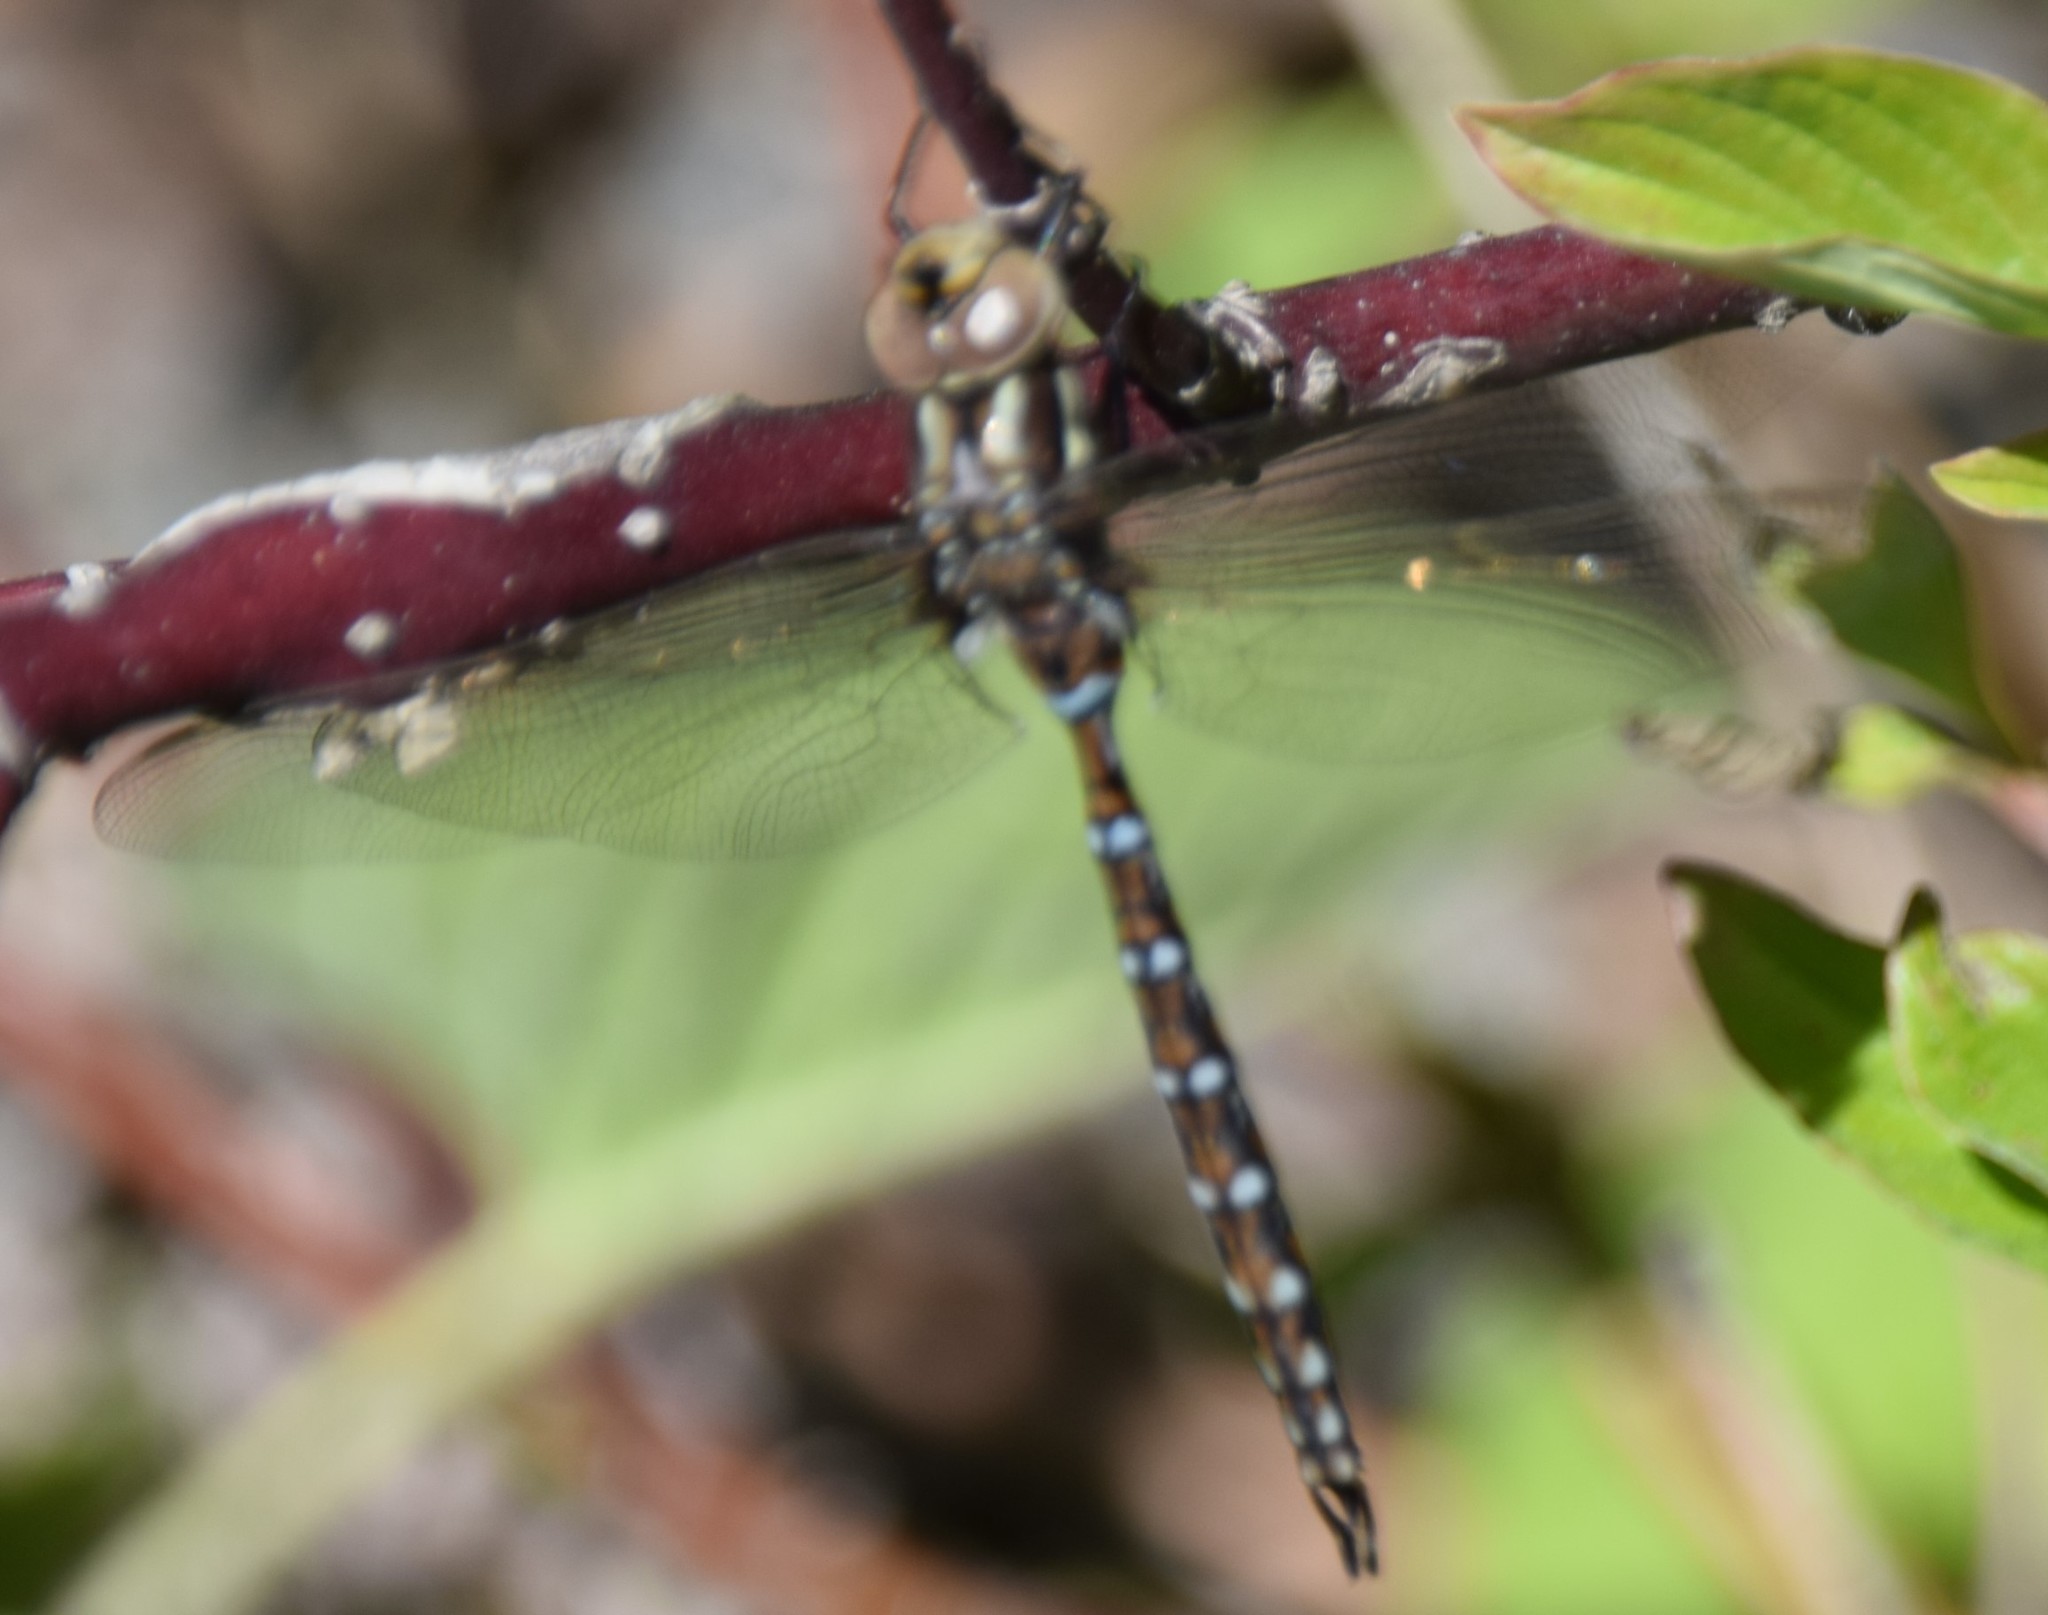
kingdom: Animalia
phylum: Arthropoda
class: Insecta
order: Odonata
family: Aeshnidae
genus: Basiaeschna
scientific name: Basiaeschna janata
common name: Springtime darner
